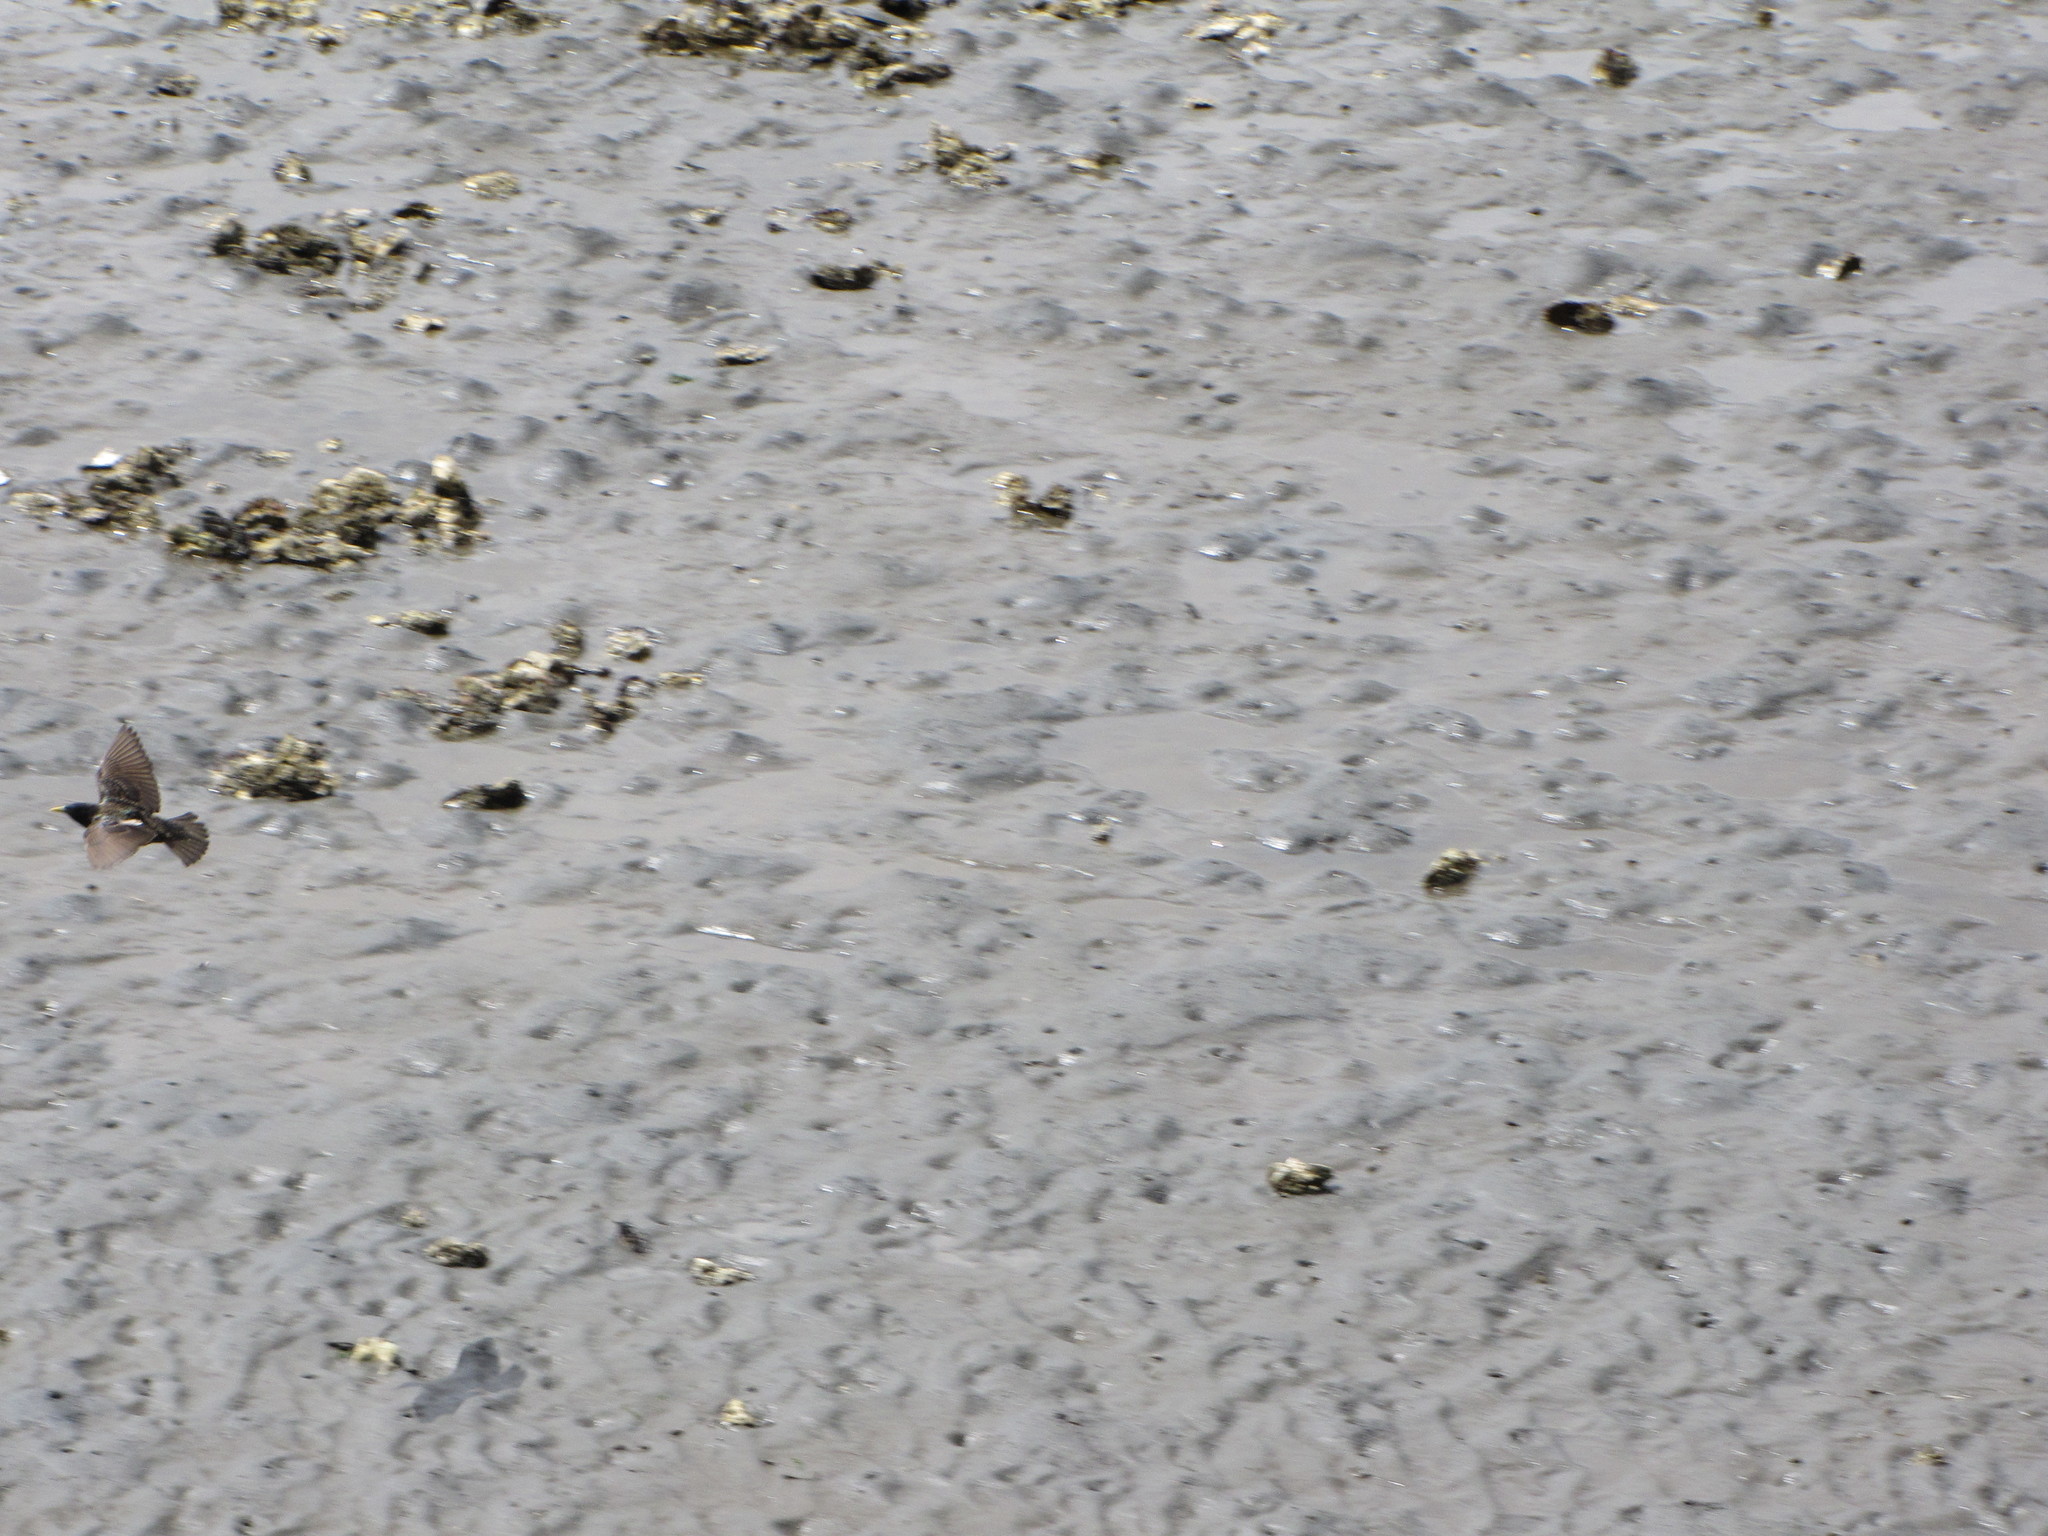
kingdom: Animalia
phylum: Chordata
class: Aves
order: Passeriformes
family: Sturnidae
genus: Sturnus
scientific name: Sturnus vulgaris
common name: Common starling
